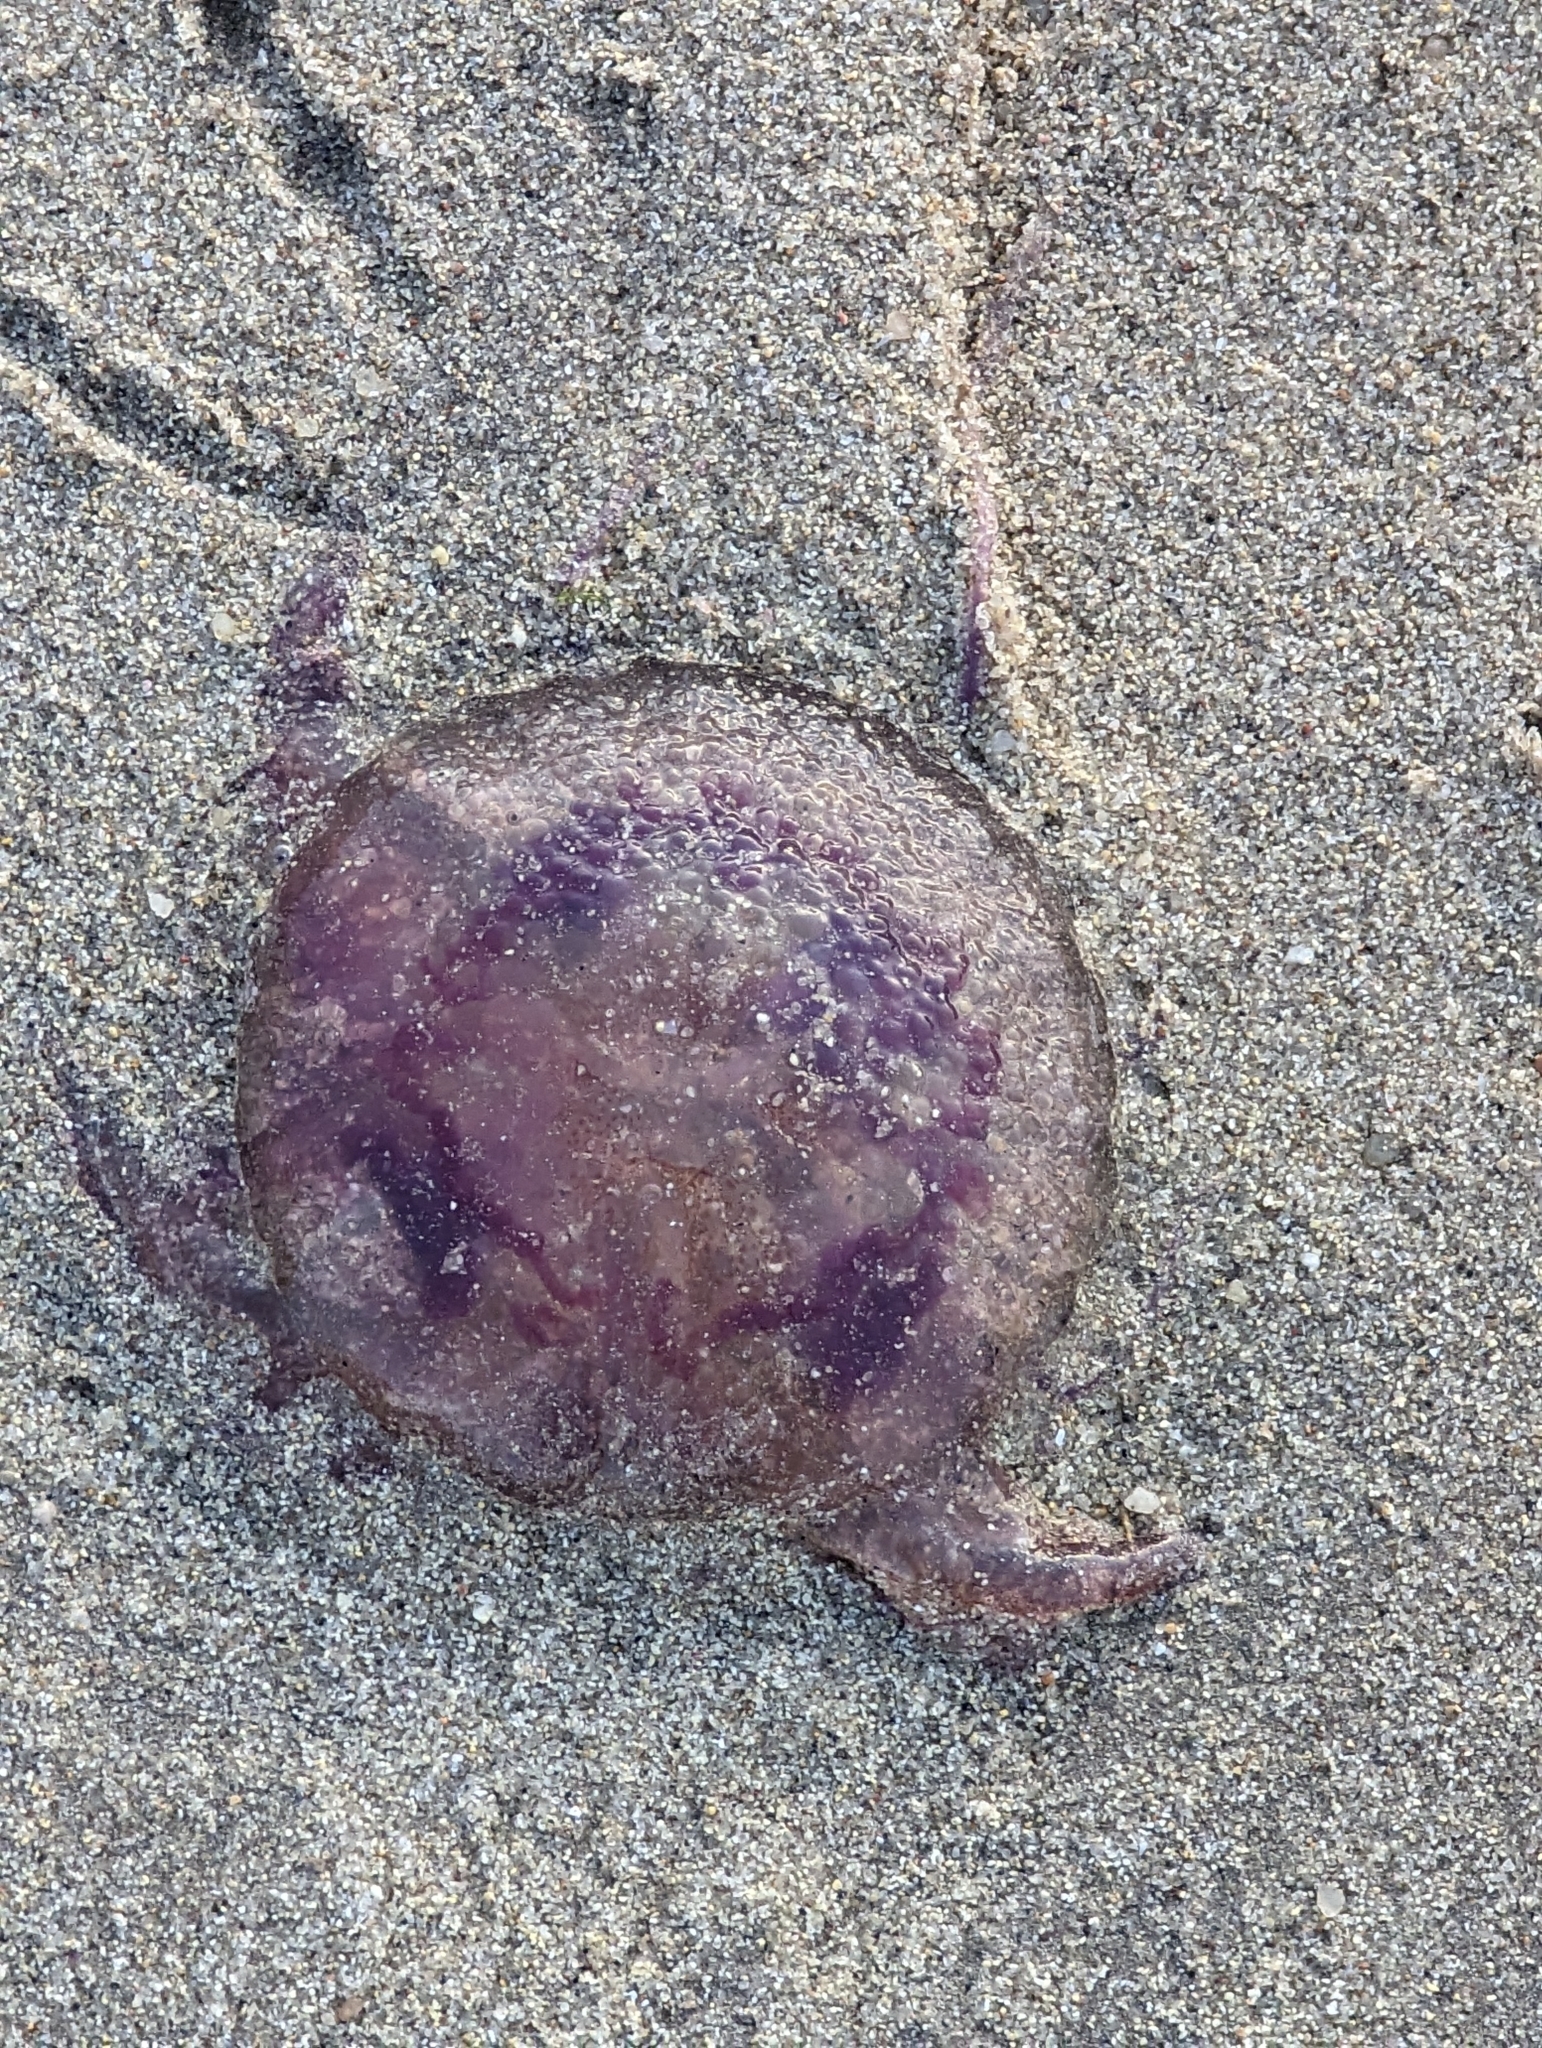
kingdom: Animalia
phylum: Cnidaria
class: Scyphozoa
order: Semaeostomeae
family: Pelagiidae
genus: Pelagia
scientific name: Pelagia noctiluca
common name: Mauve stinger
